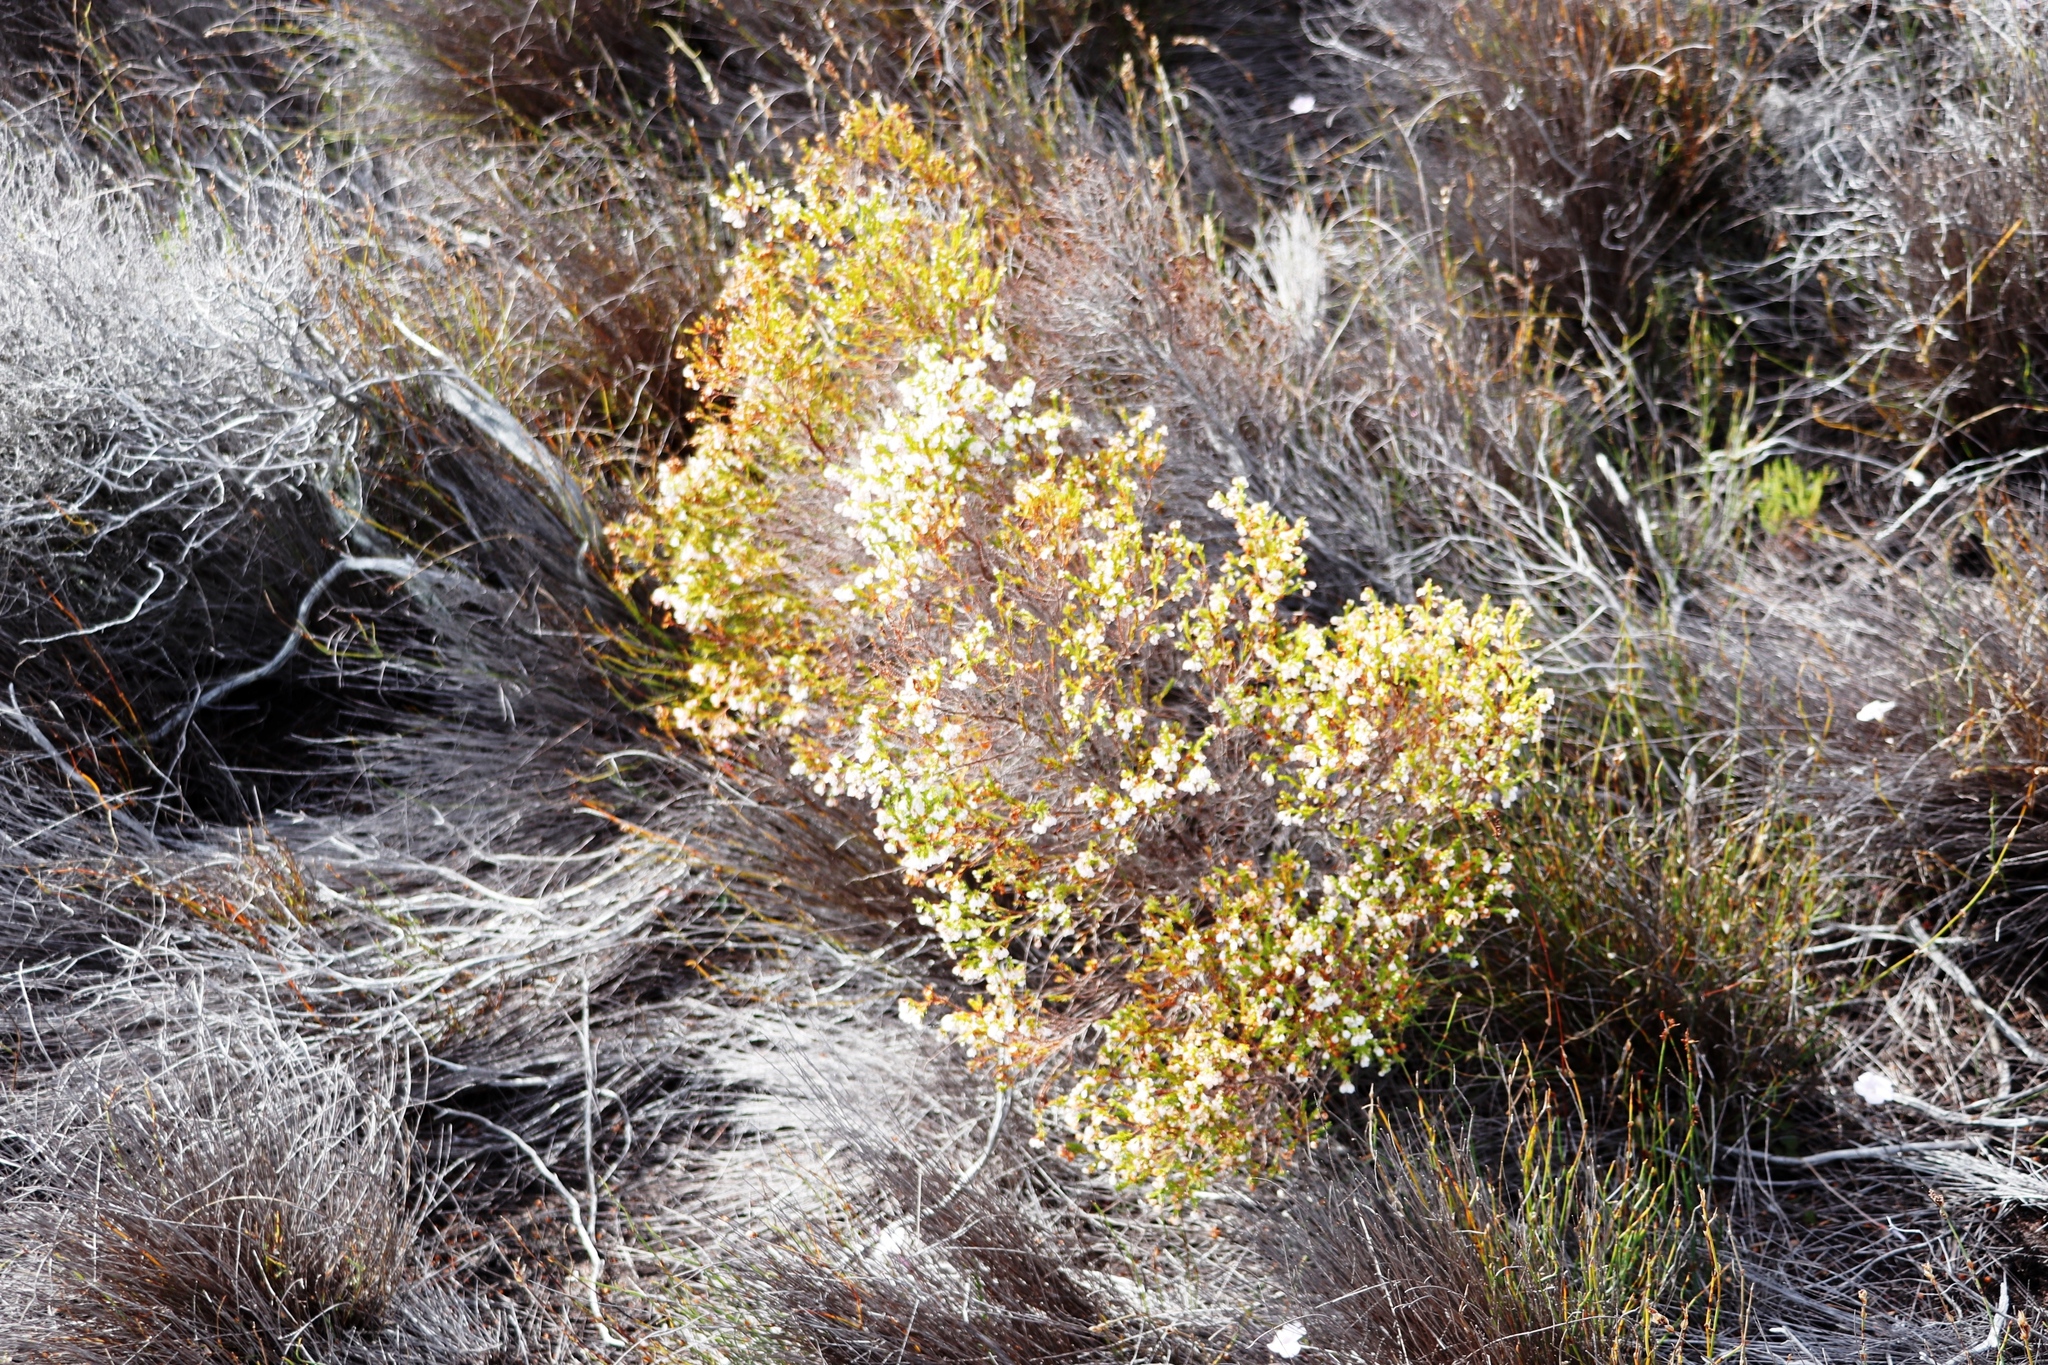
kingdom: Plantae
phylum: Tracheophyta
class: Magnoliopsida
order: Ericales
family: Ericaceae
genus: Erica
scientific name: Erica subdivaricata
